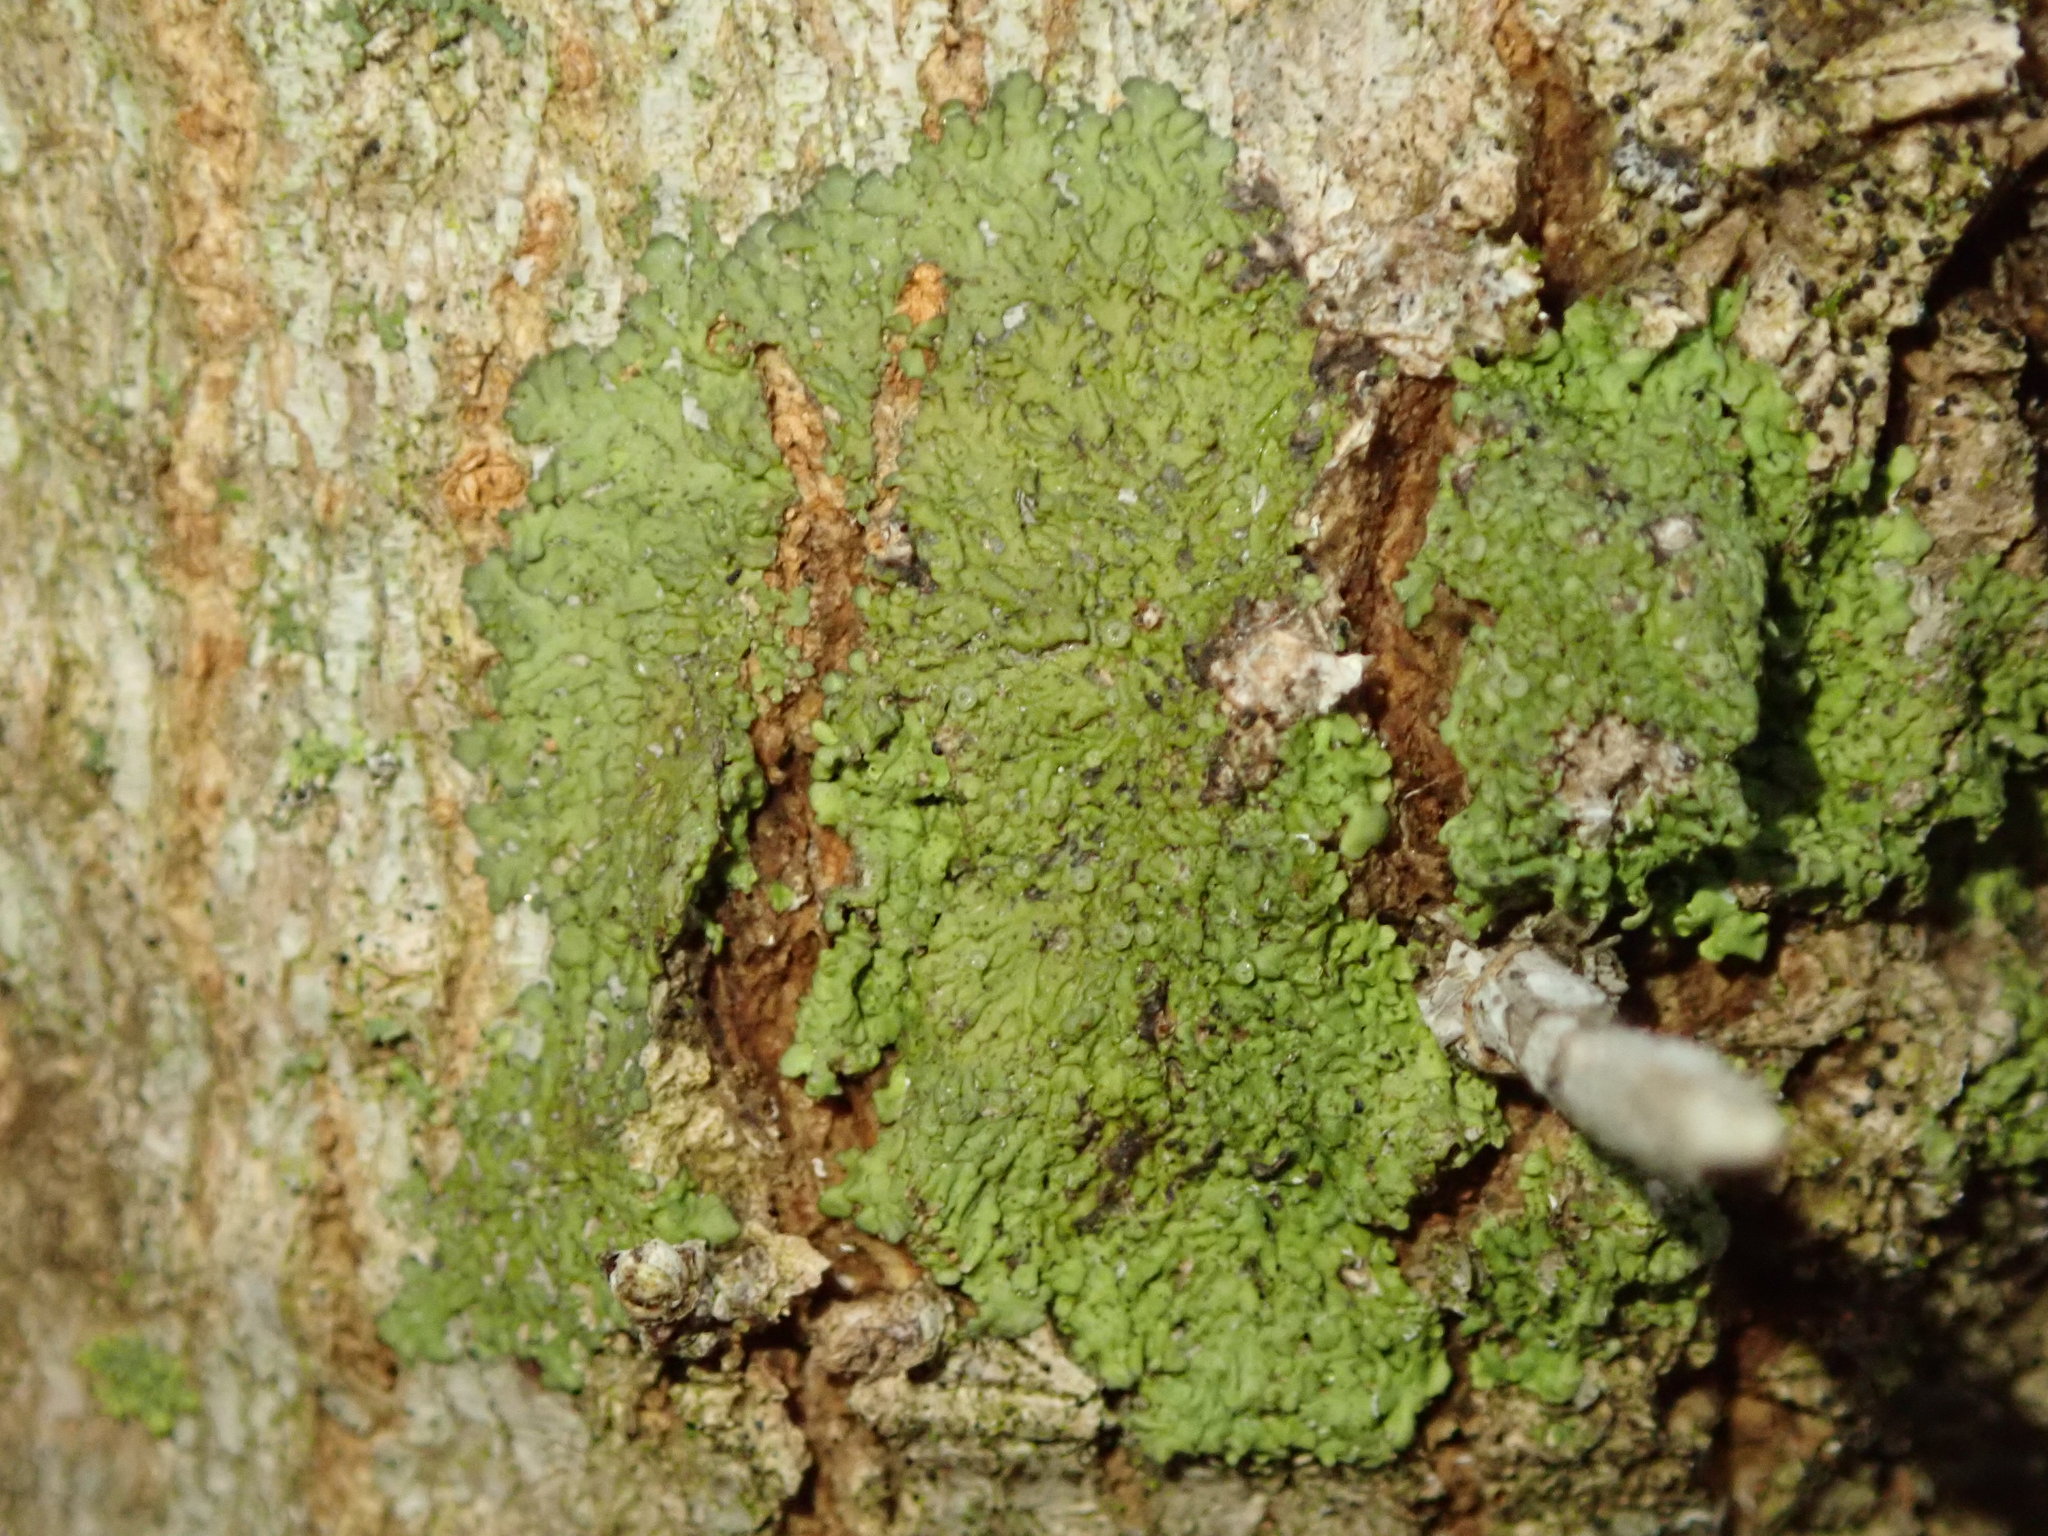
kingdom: Fungi
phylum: Ascomycota
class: Lecanoromycetes
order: Caliciales
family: Physciaceae
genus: Hyperphyscia
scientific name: Hyperphyscia syncolla
